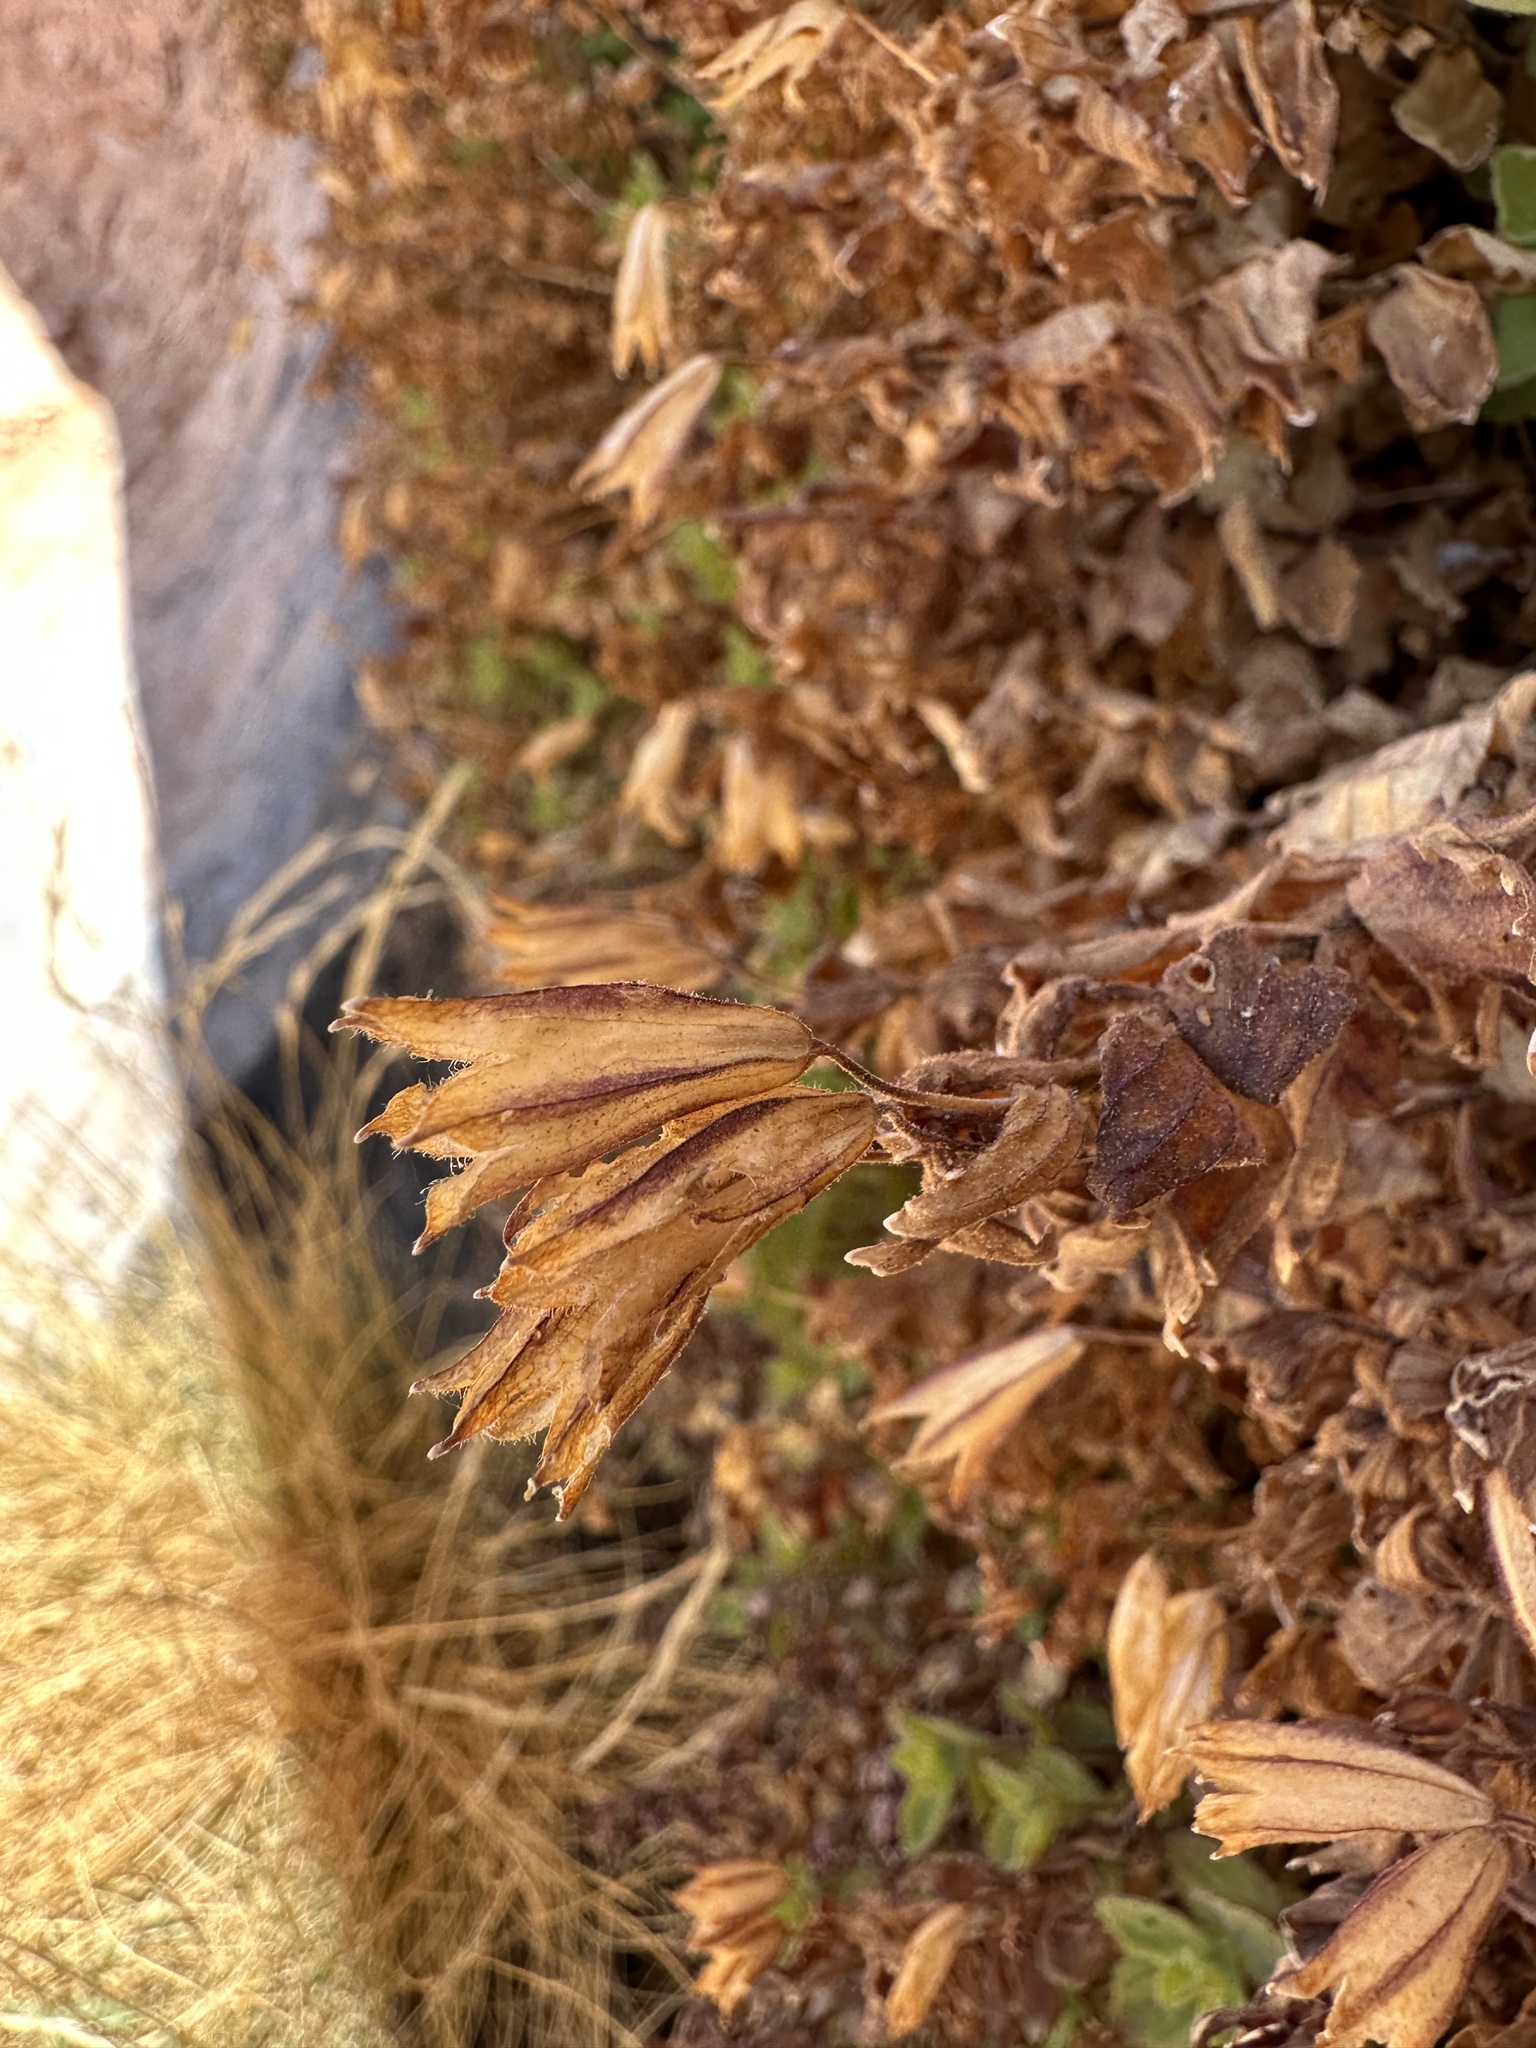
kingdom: Plantae
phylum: Tracheophyta
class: Magnoliopsida
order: Lamiales
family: Phrymaceae
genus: Erythranthe
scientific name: Erythranthe eastwoodiae
